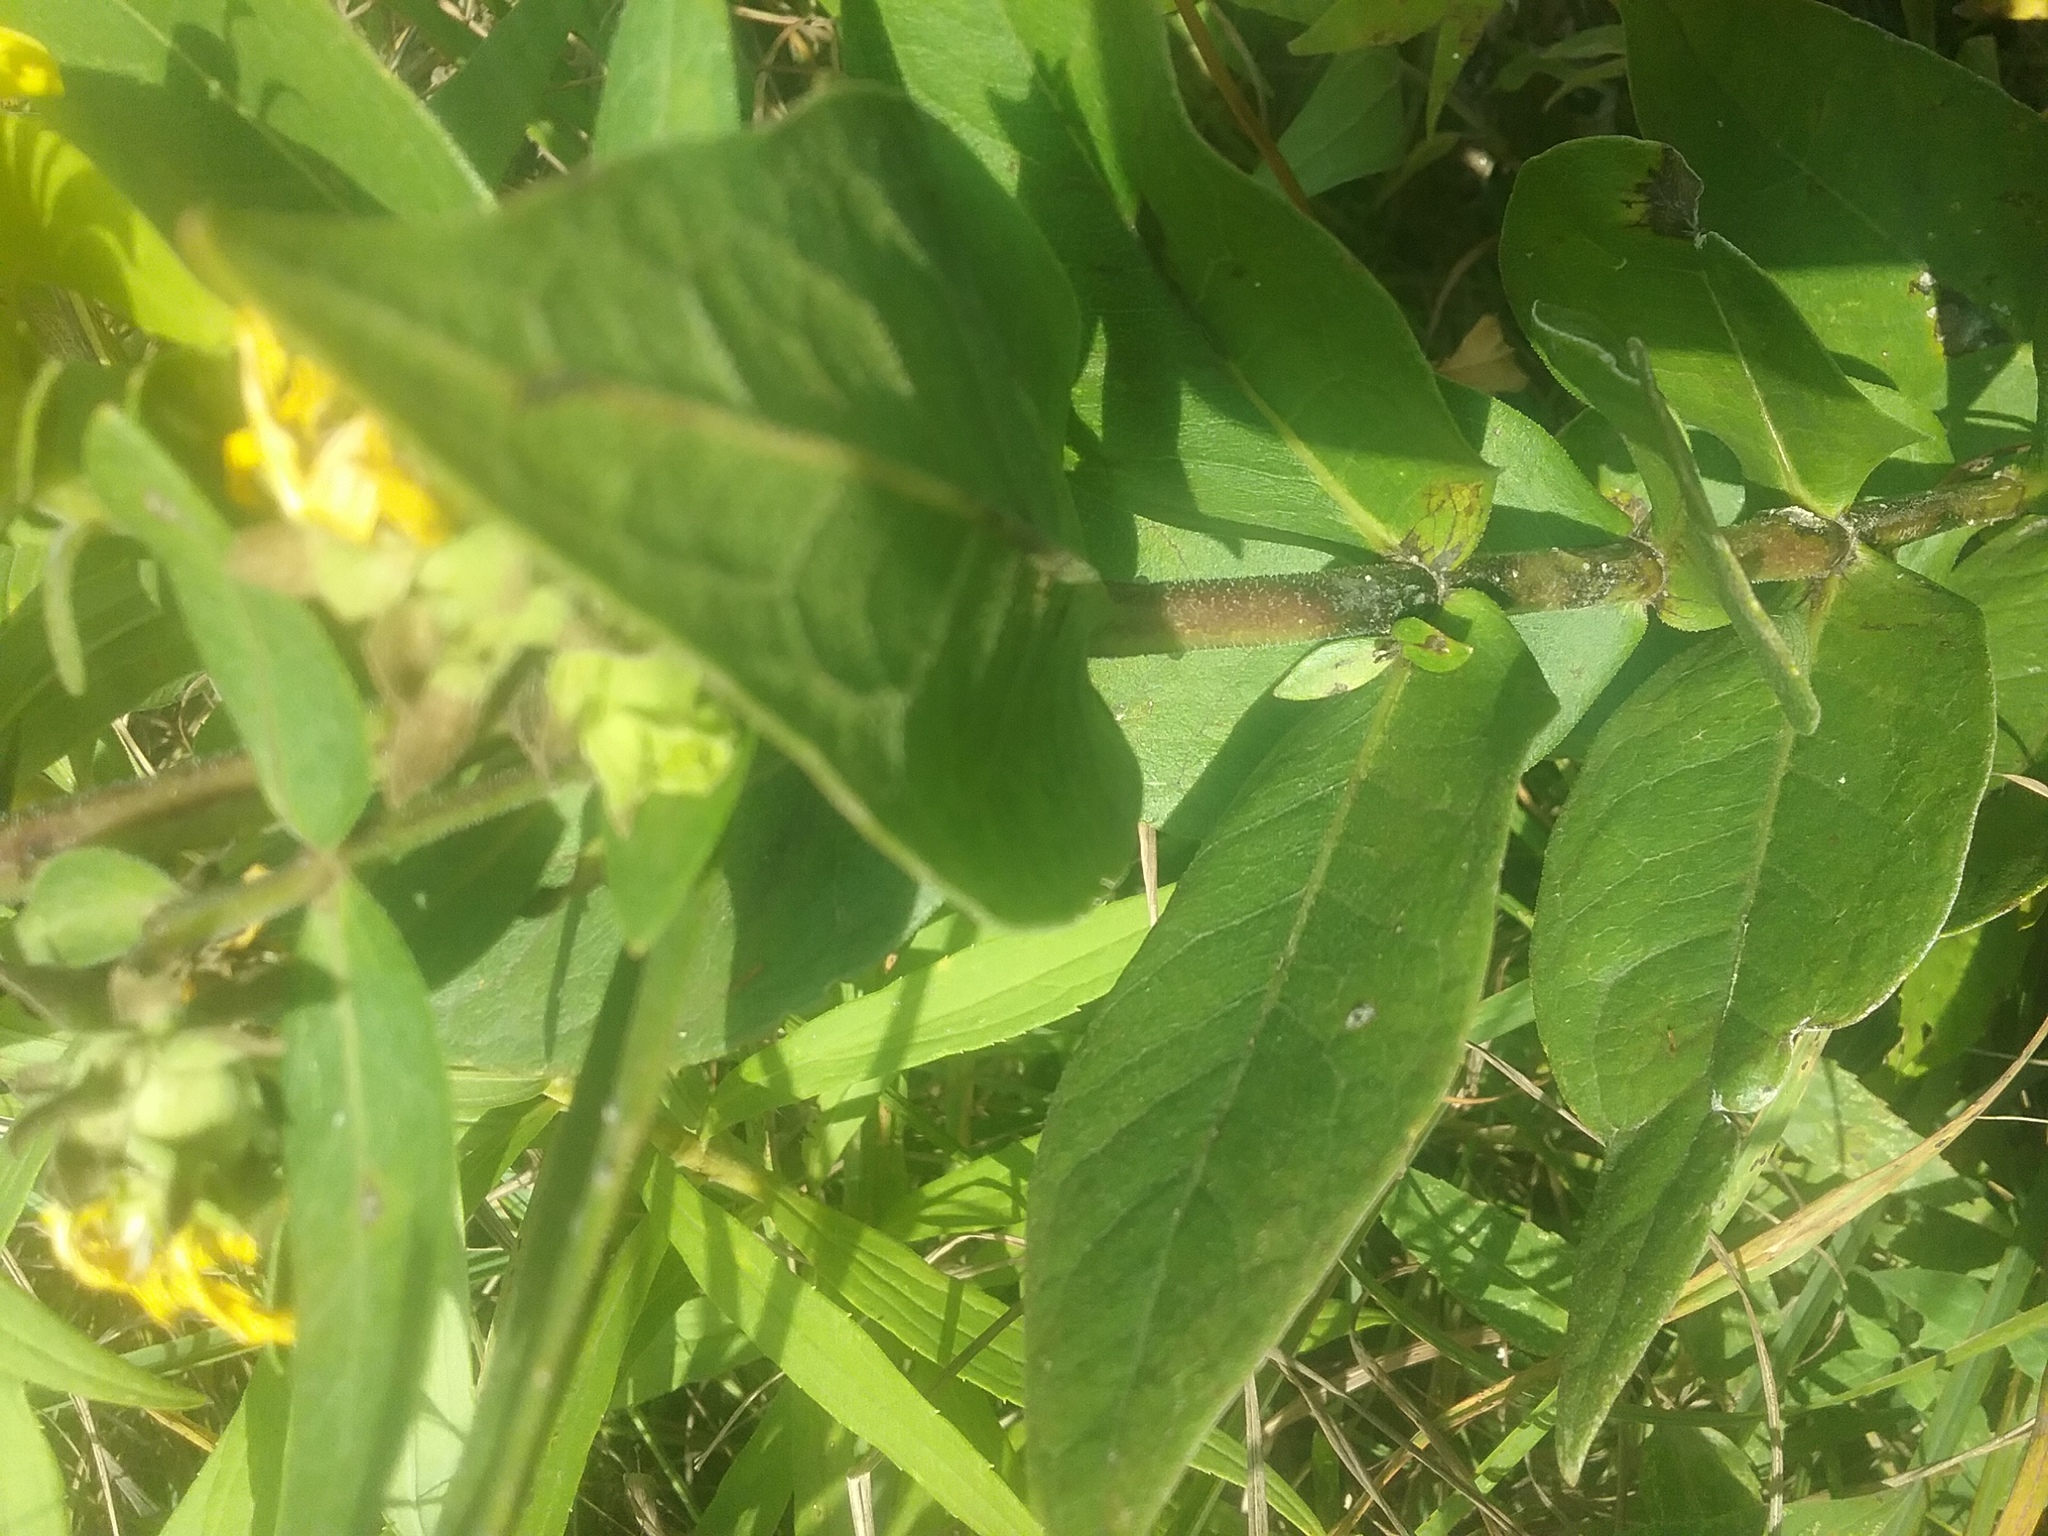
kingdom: Plantae
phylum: Tracheophyta
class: Magnoliopsida
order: Asterales
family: Asteraceae
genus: Silphium
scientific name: Silphium integrifolium
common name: Whole-leaf rosinweed
